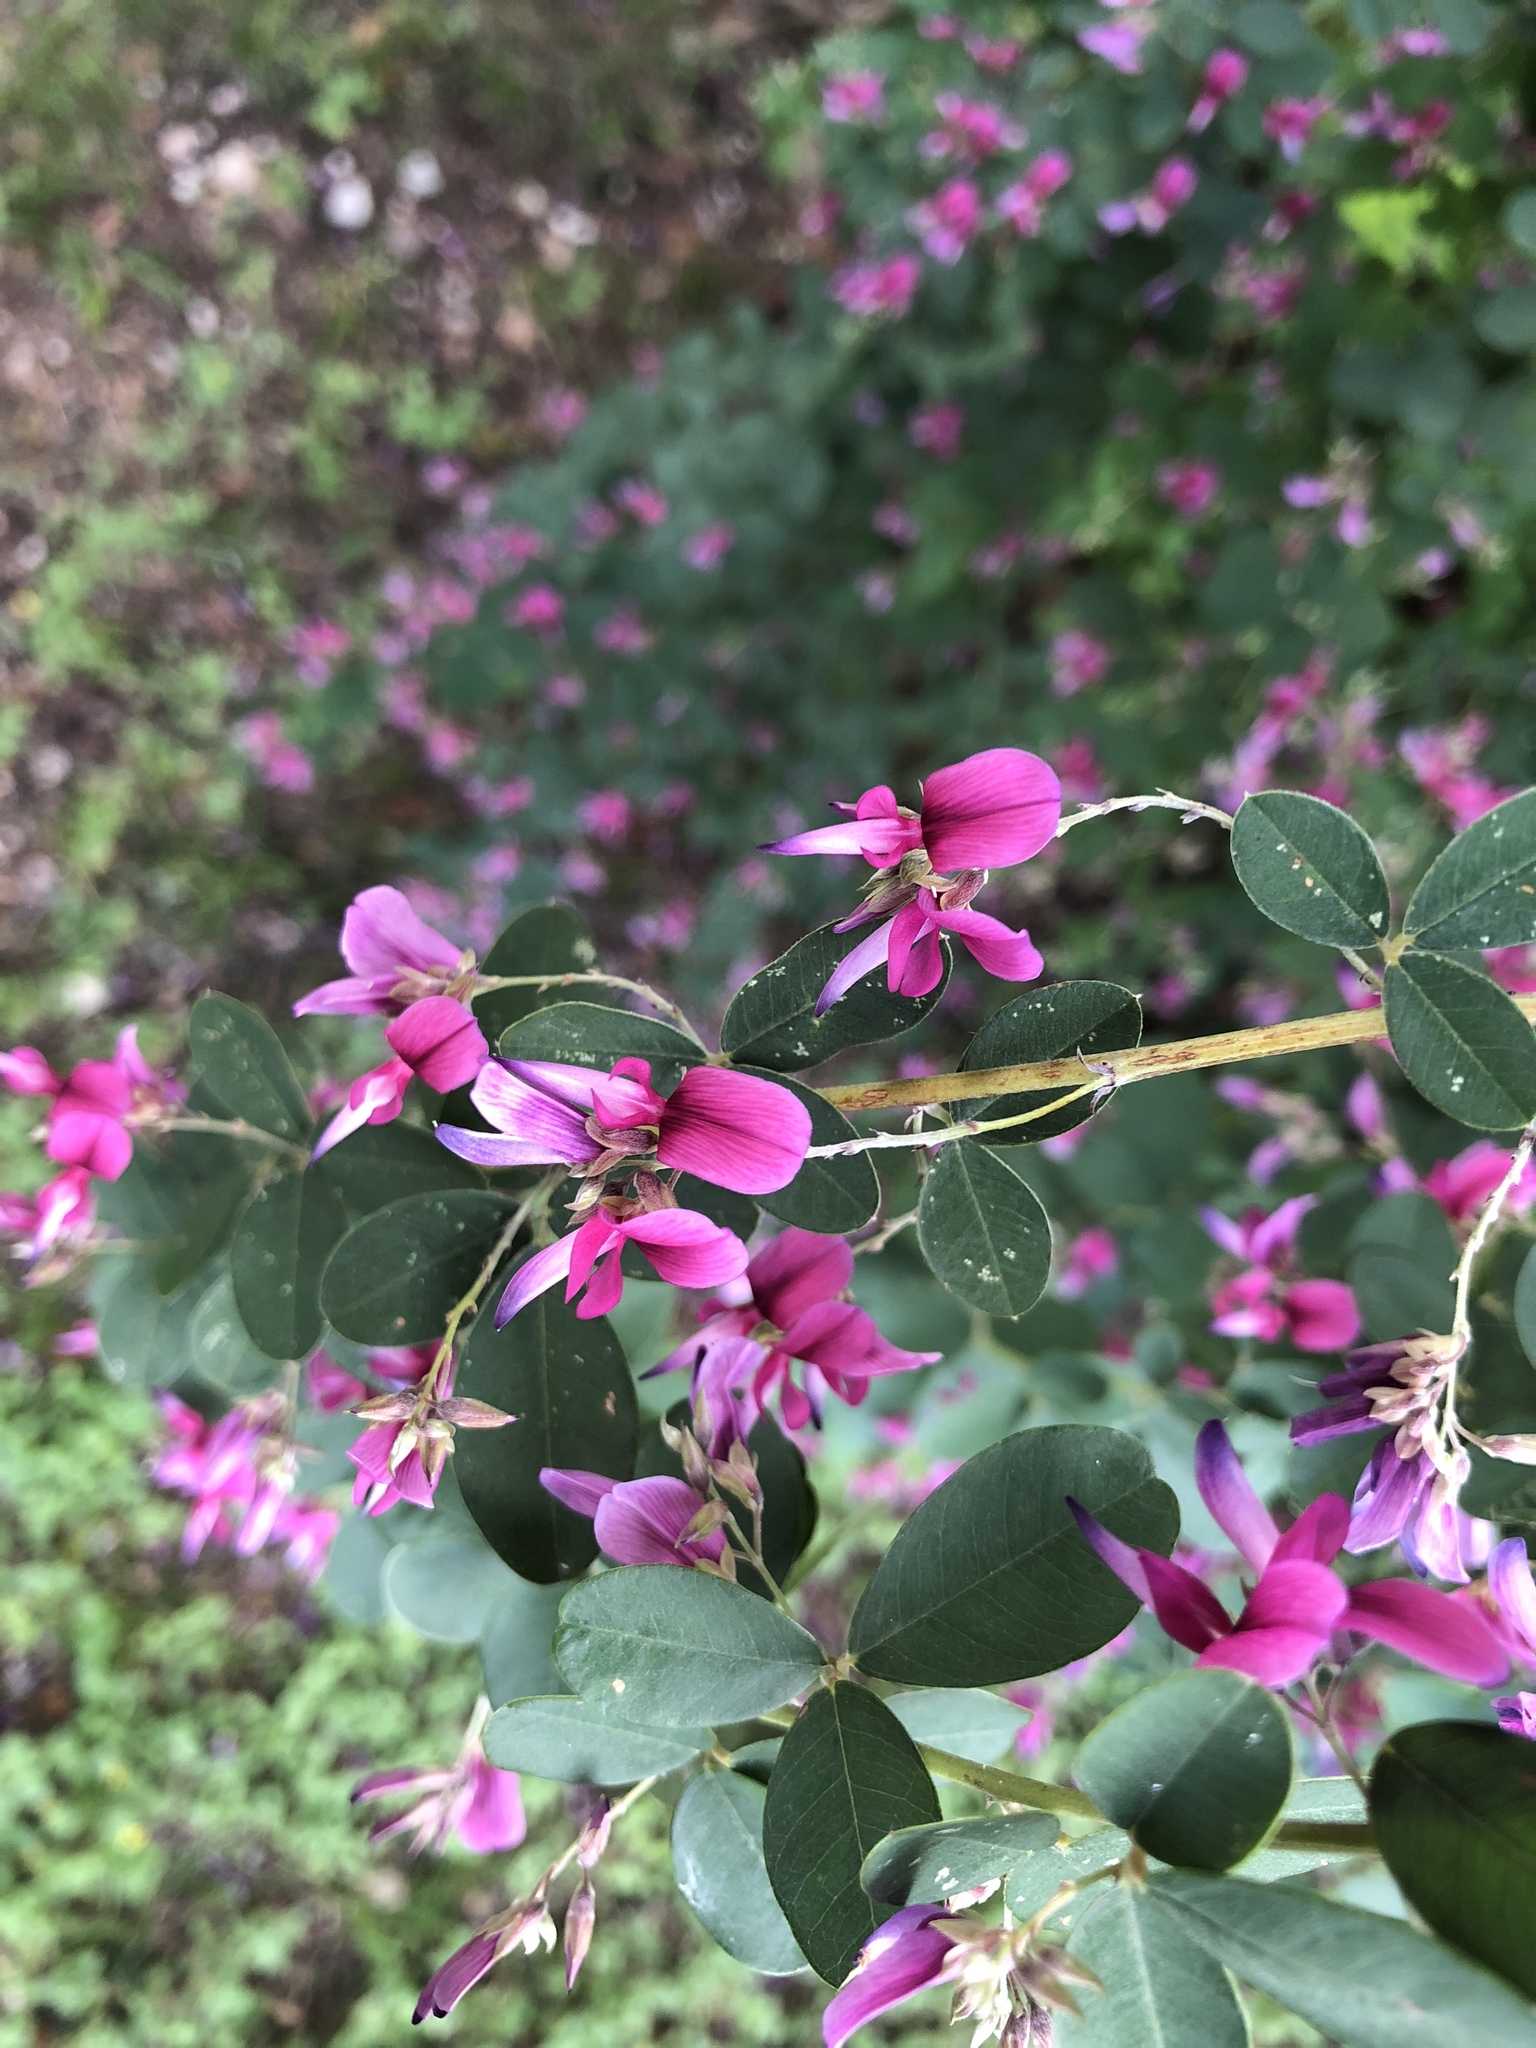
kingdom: Plantae
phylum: Tracheophyta
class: Magnoliopsida
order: Fabales
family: Fabaceae
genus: Lespedeza
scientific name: Lespedeza texana
